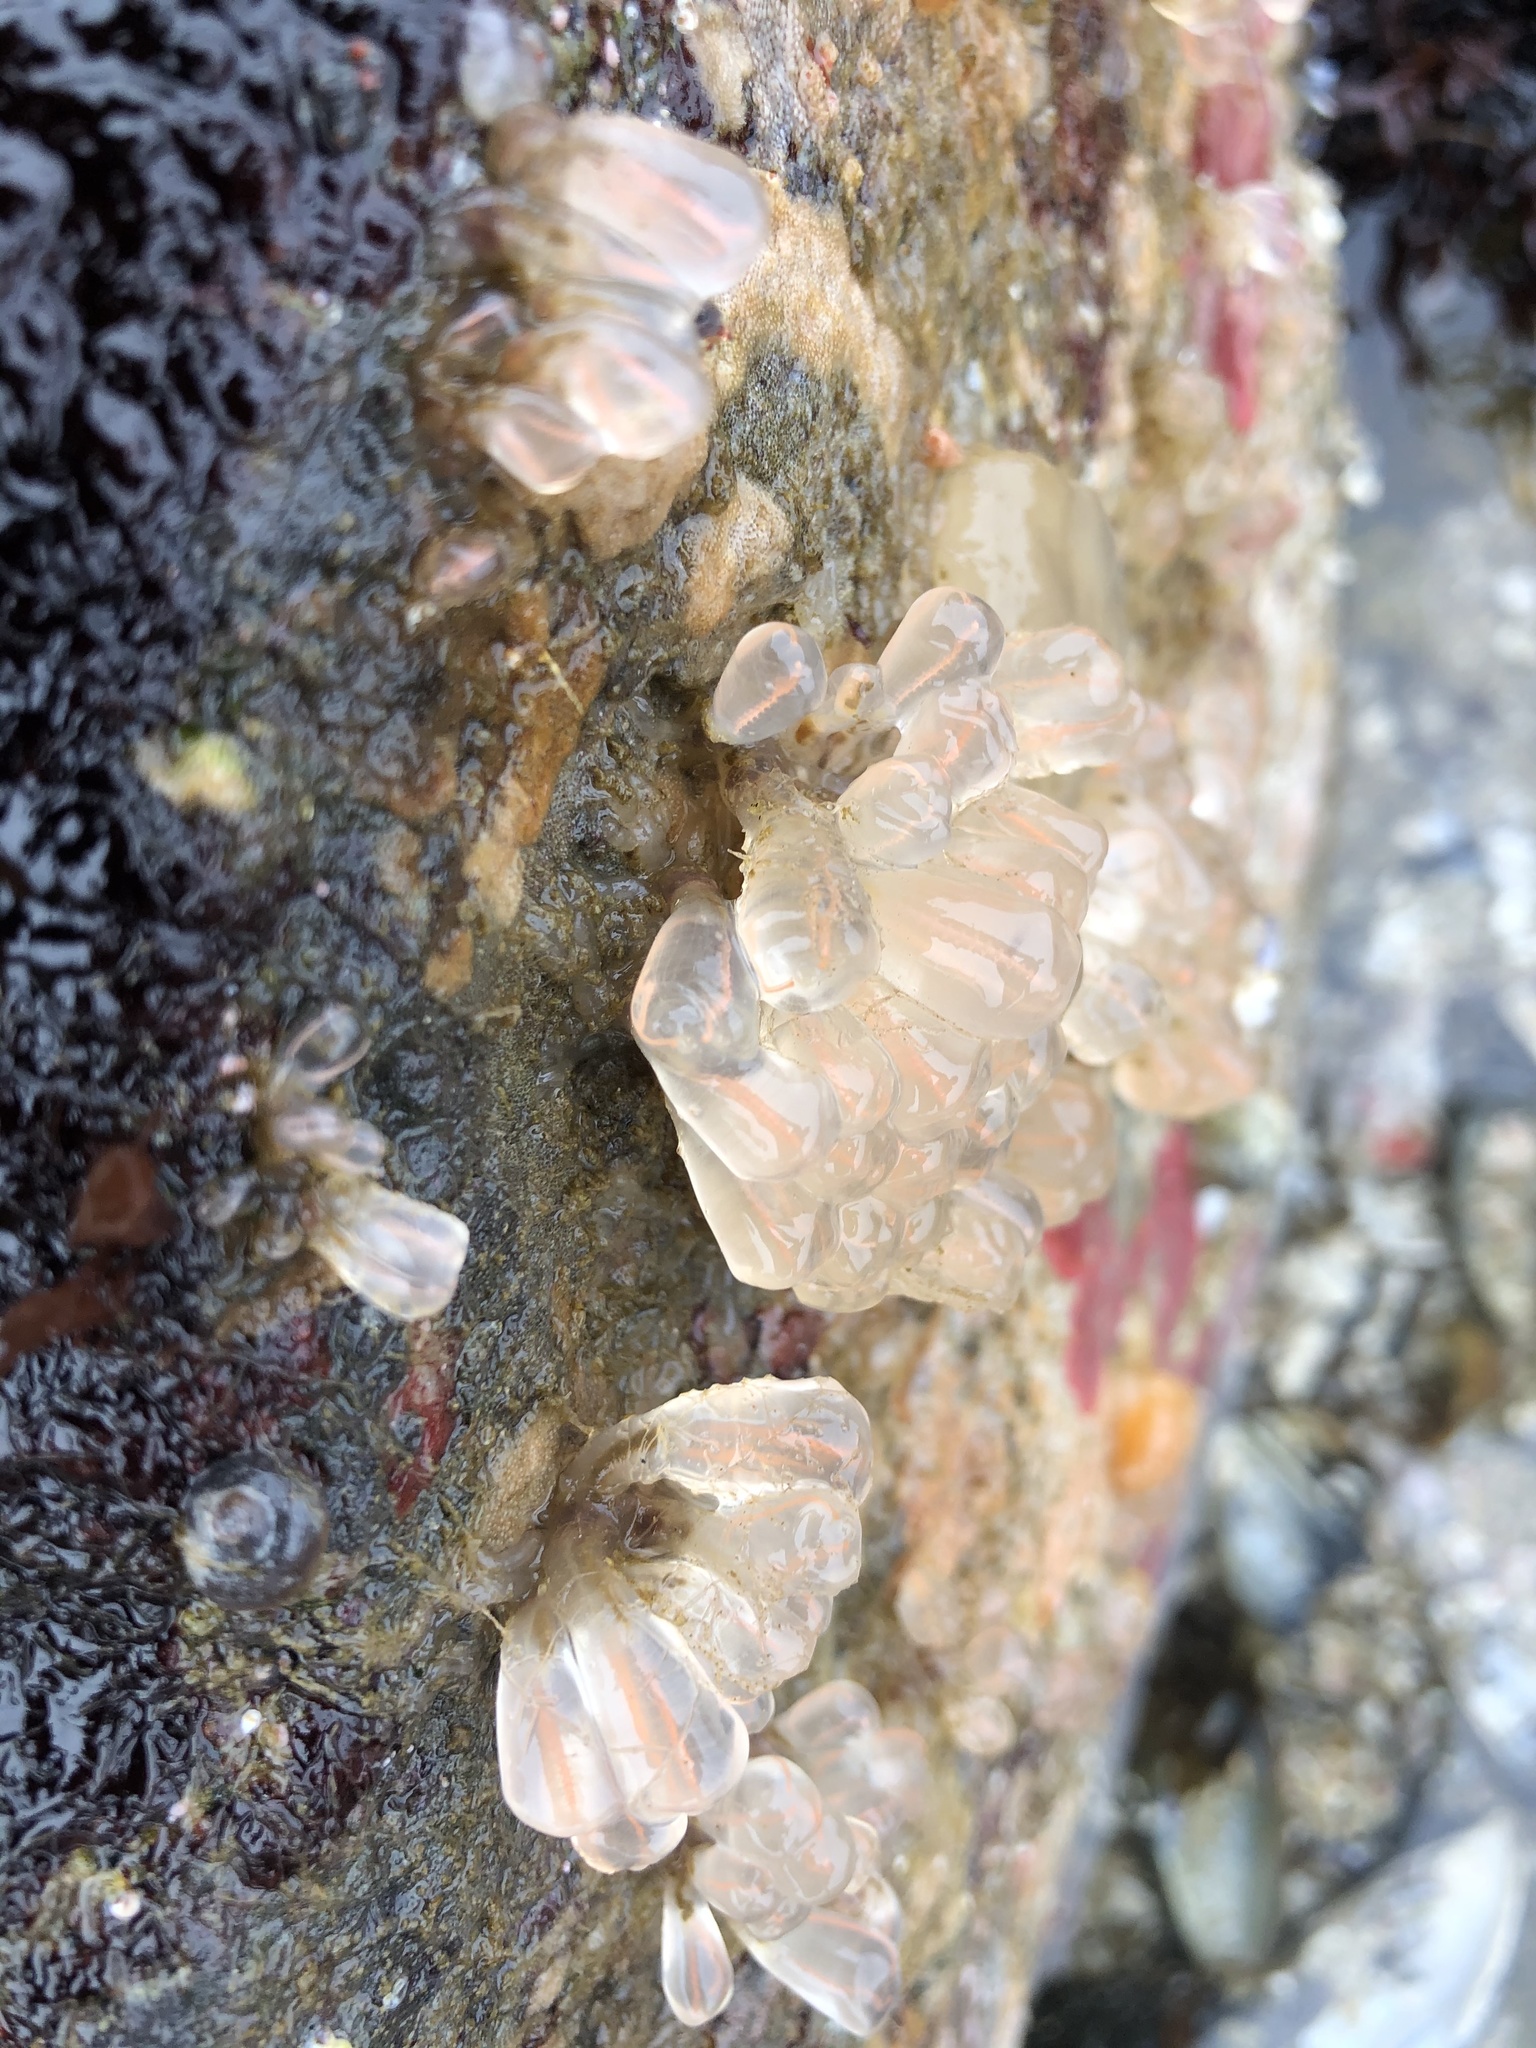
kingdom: Animalia
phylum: Chordata
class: Ascidiacea
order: Aplousobranchia
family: Clavelinidae
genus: Clavelina
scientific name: Clavelina huntsmani
